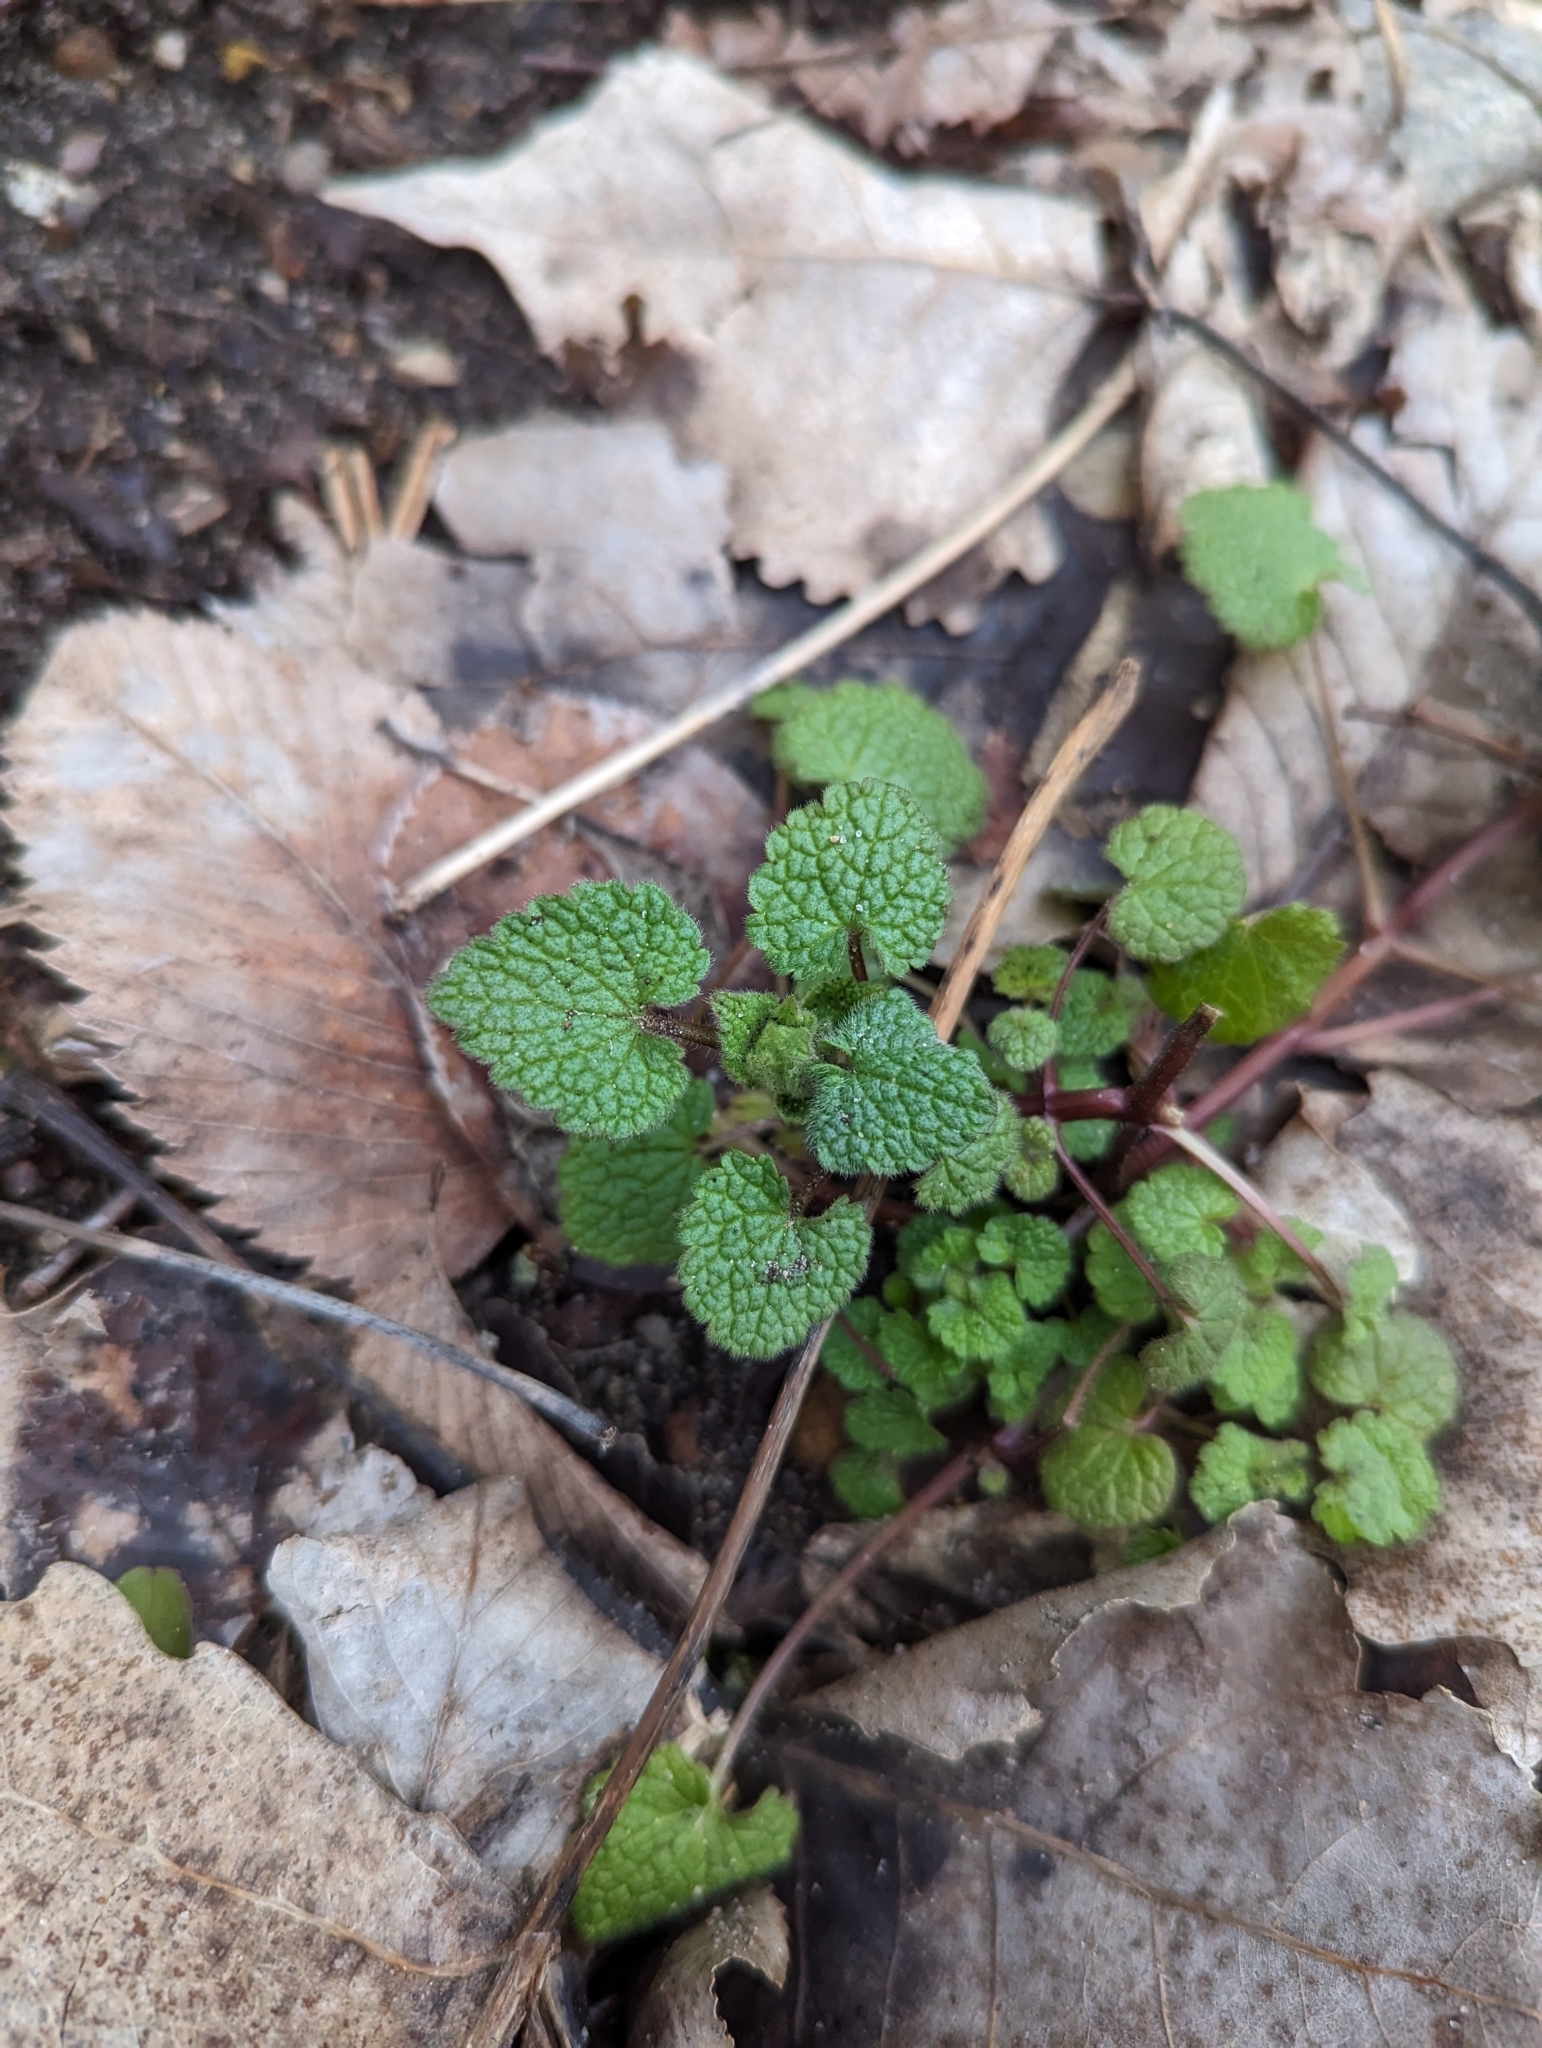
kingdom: Plantae
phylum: Tracheophyta
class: Magnoliopsida
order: Lamiales
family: Lamiaceae
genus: Lamium
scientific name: Lamium purpureum
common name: Red dead-nettle
